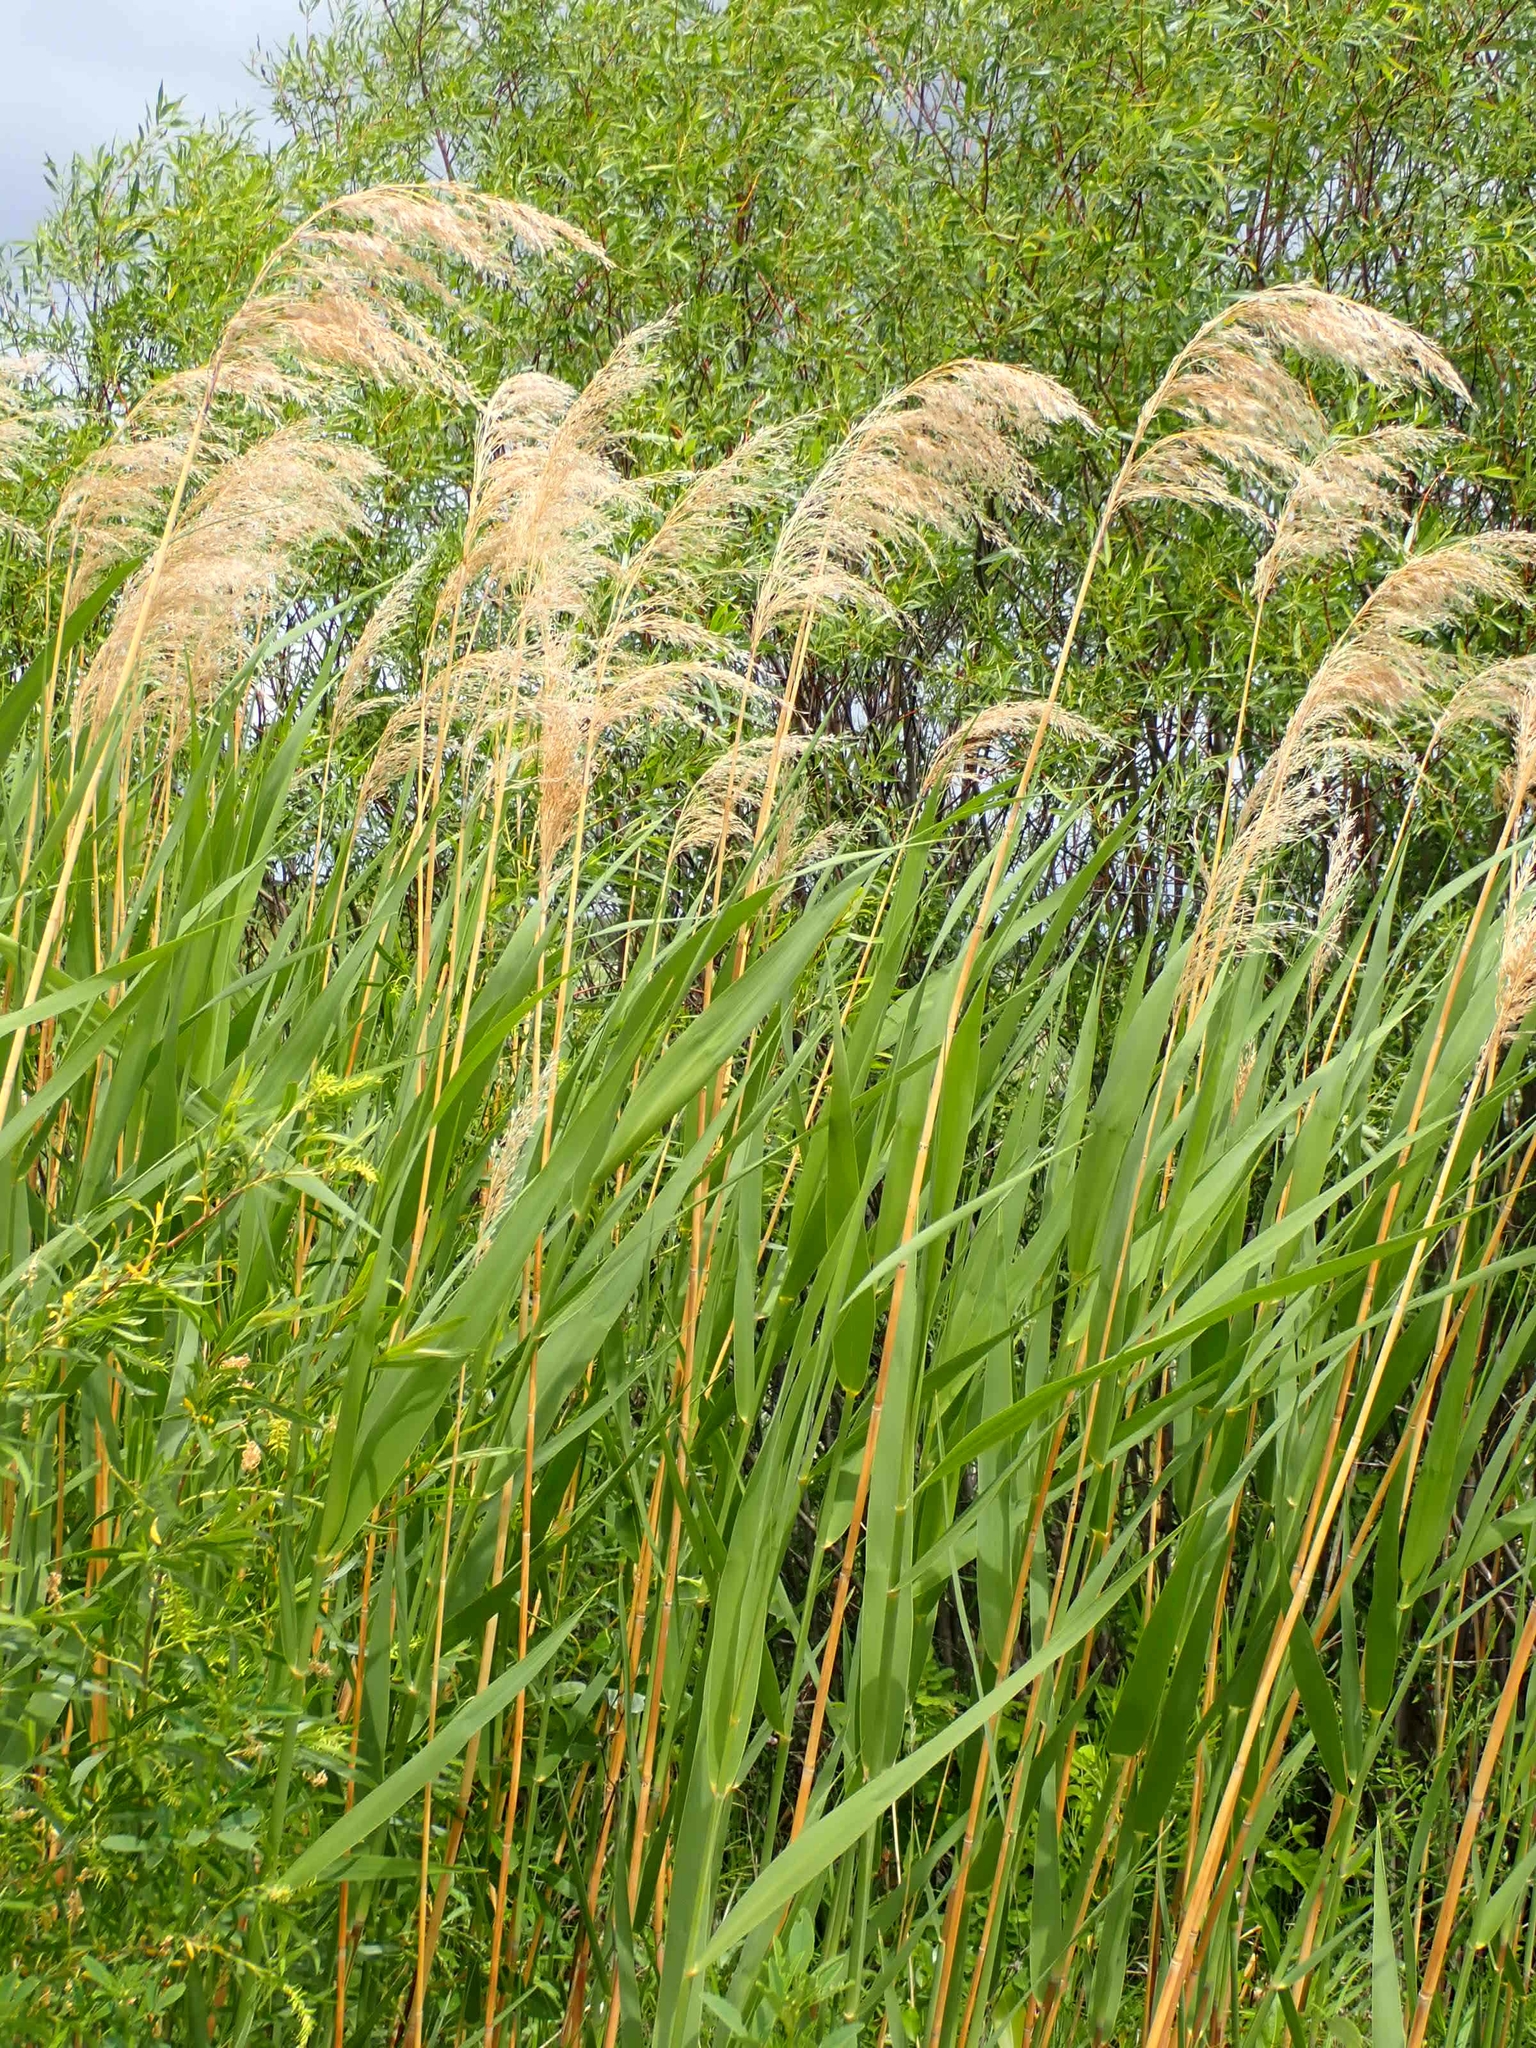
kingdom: Plantae
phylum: Tracheophyta
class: Liliopsida
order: Poales
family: Poaceae
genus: Phragmites
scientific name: Phragmites australis
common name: Common reed
